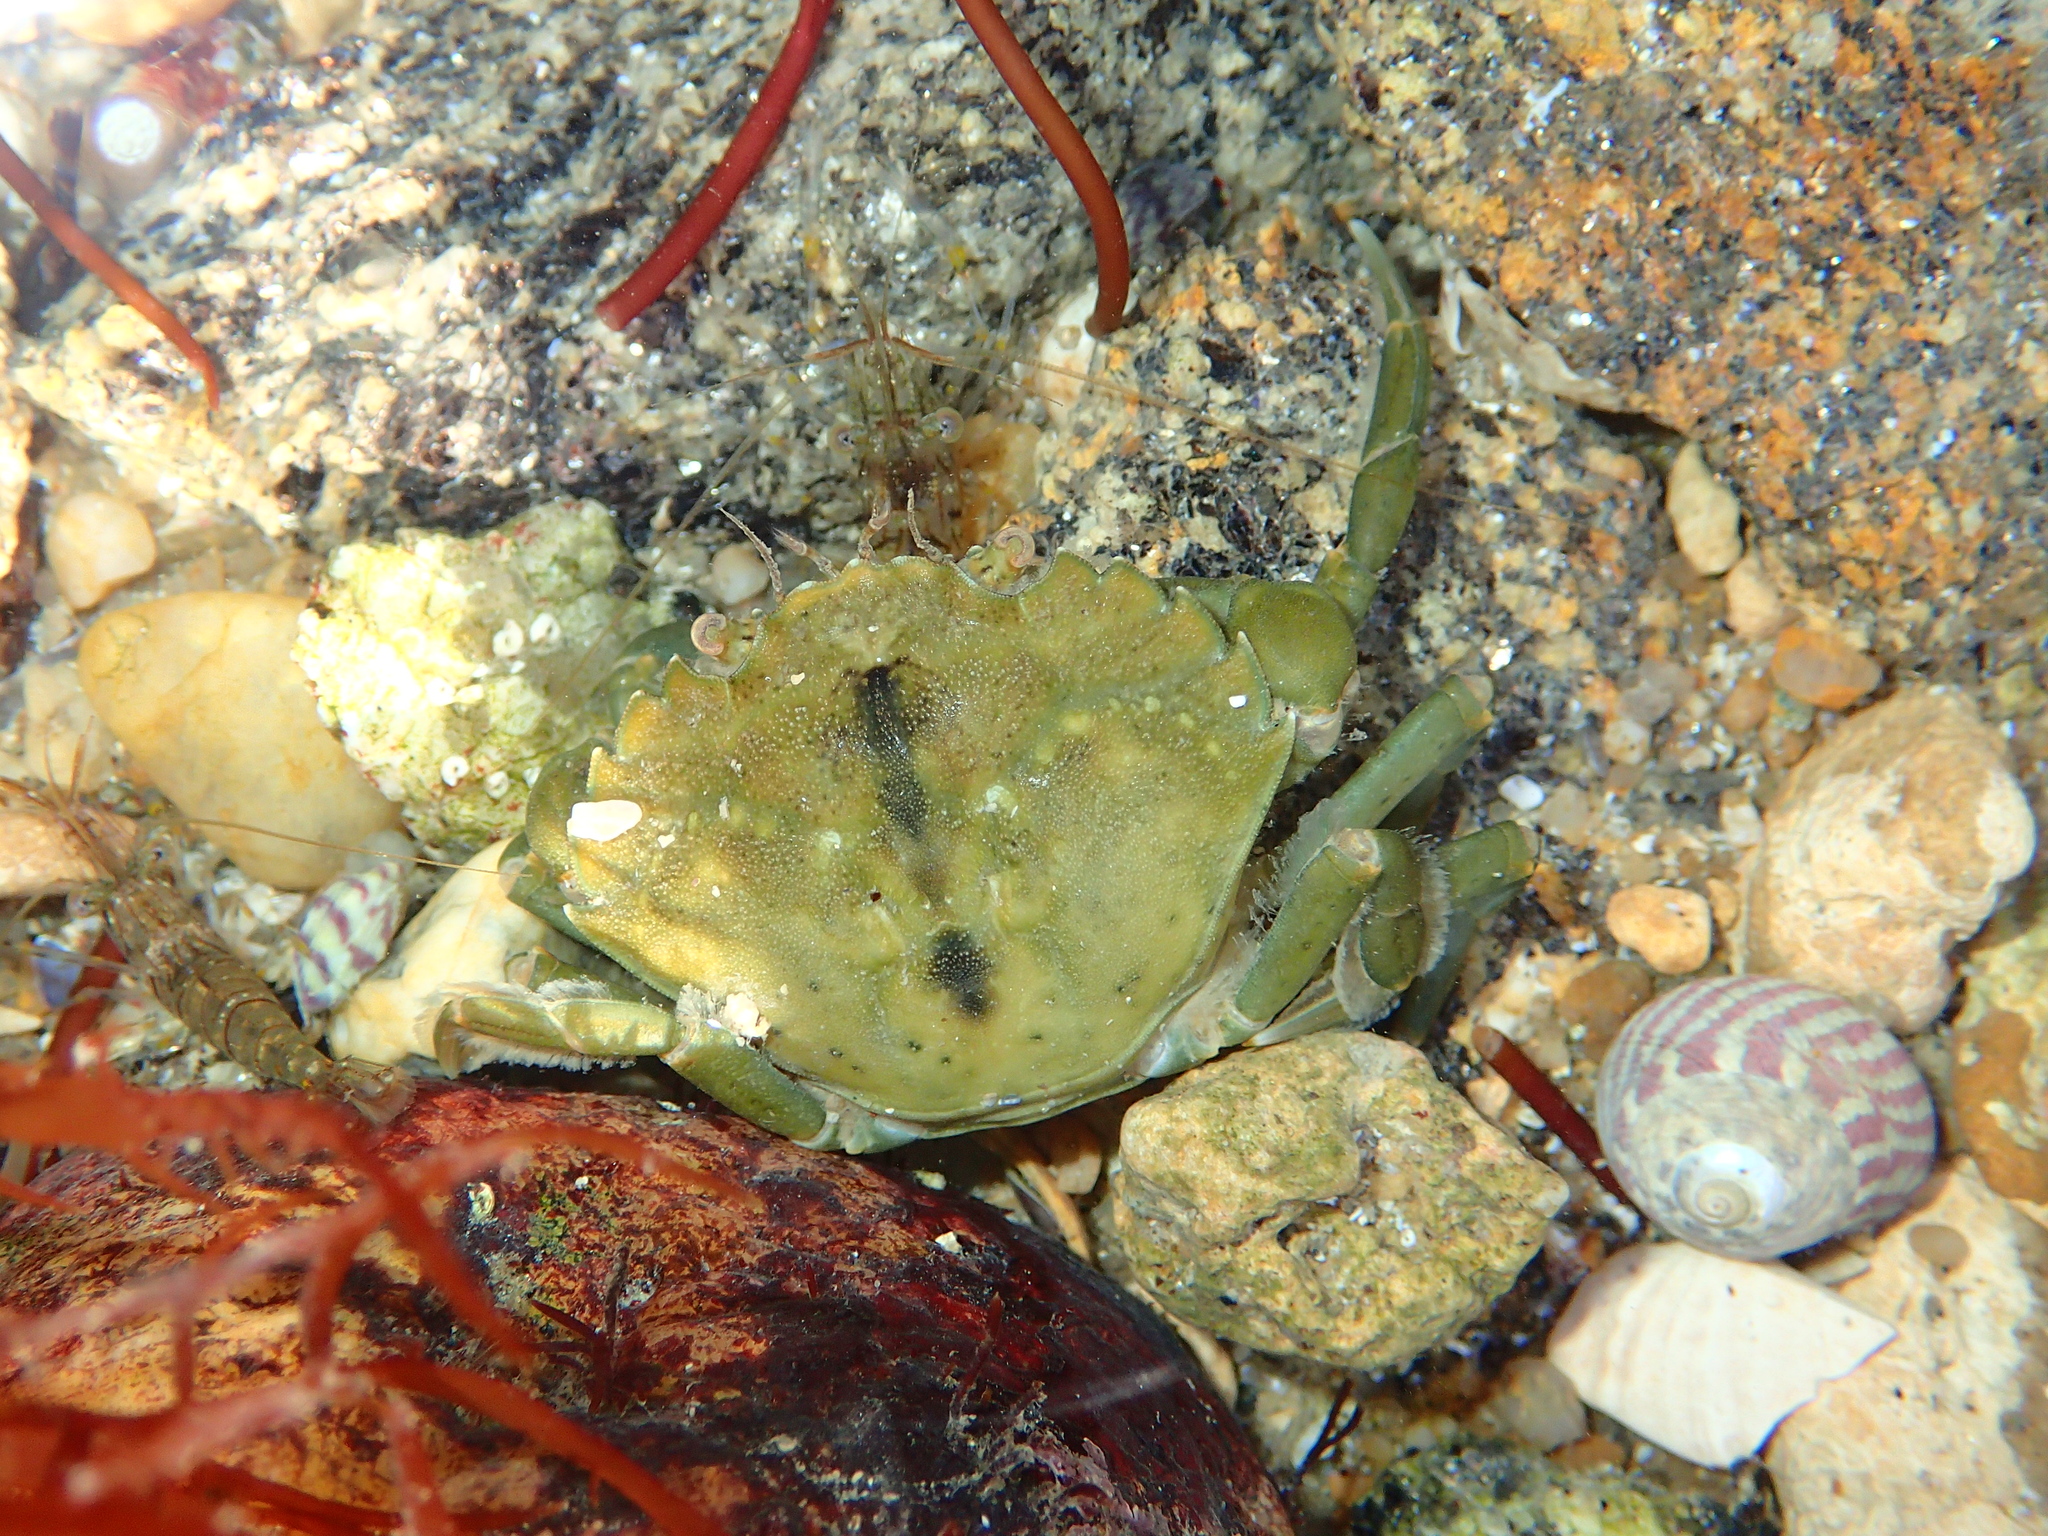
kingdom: Animalia
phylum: Arthropoda
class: Malacostraca
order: Decapoda
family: Carcinidae
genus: Carcinus
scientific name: Carcinus maenas
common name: European green crab
